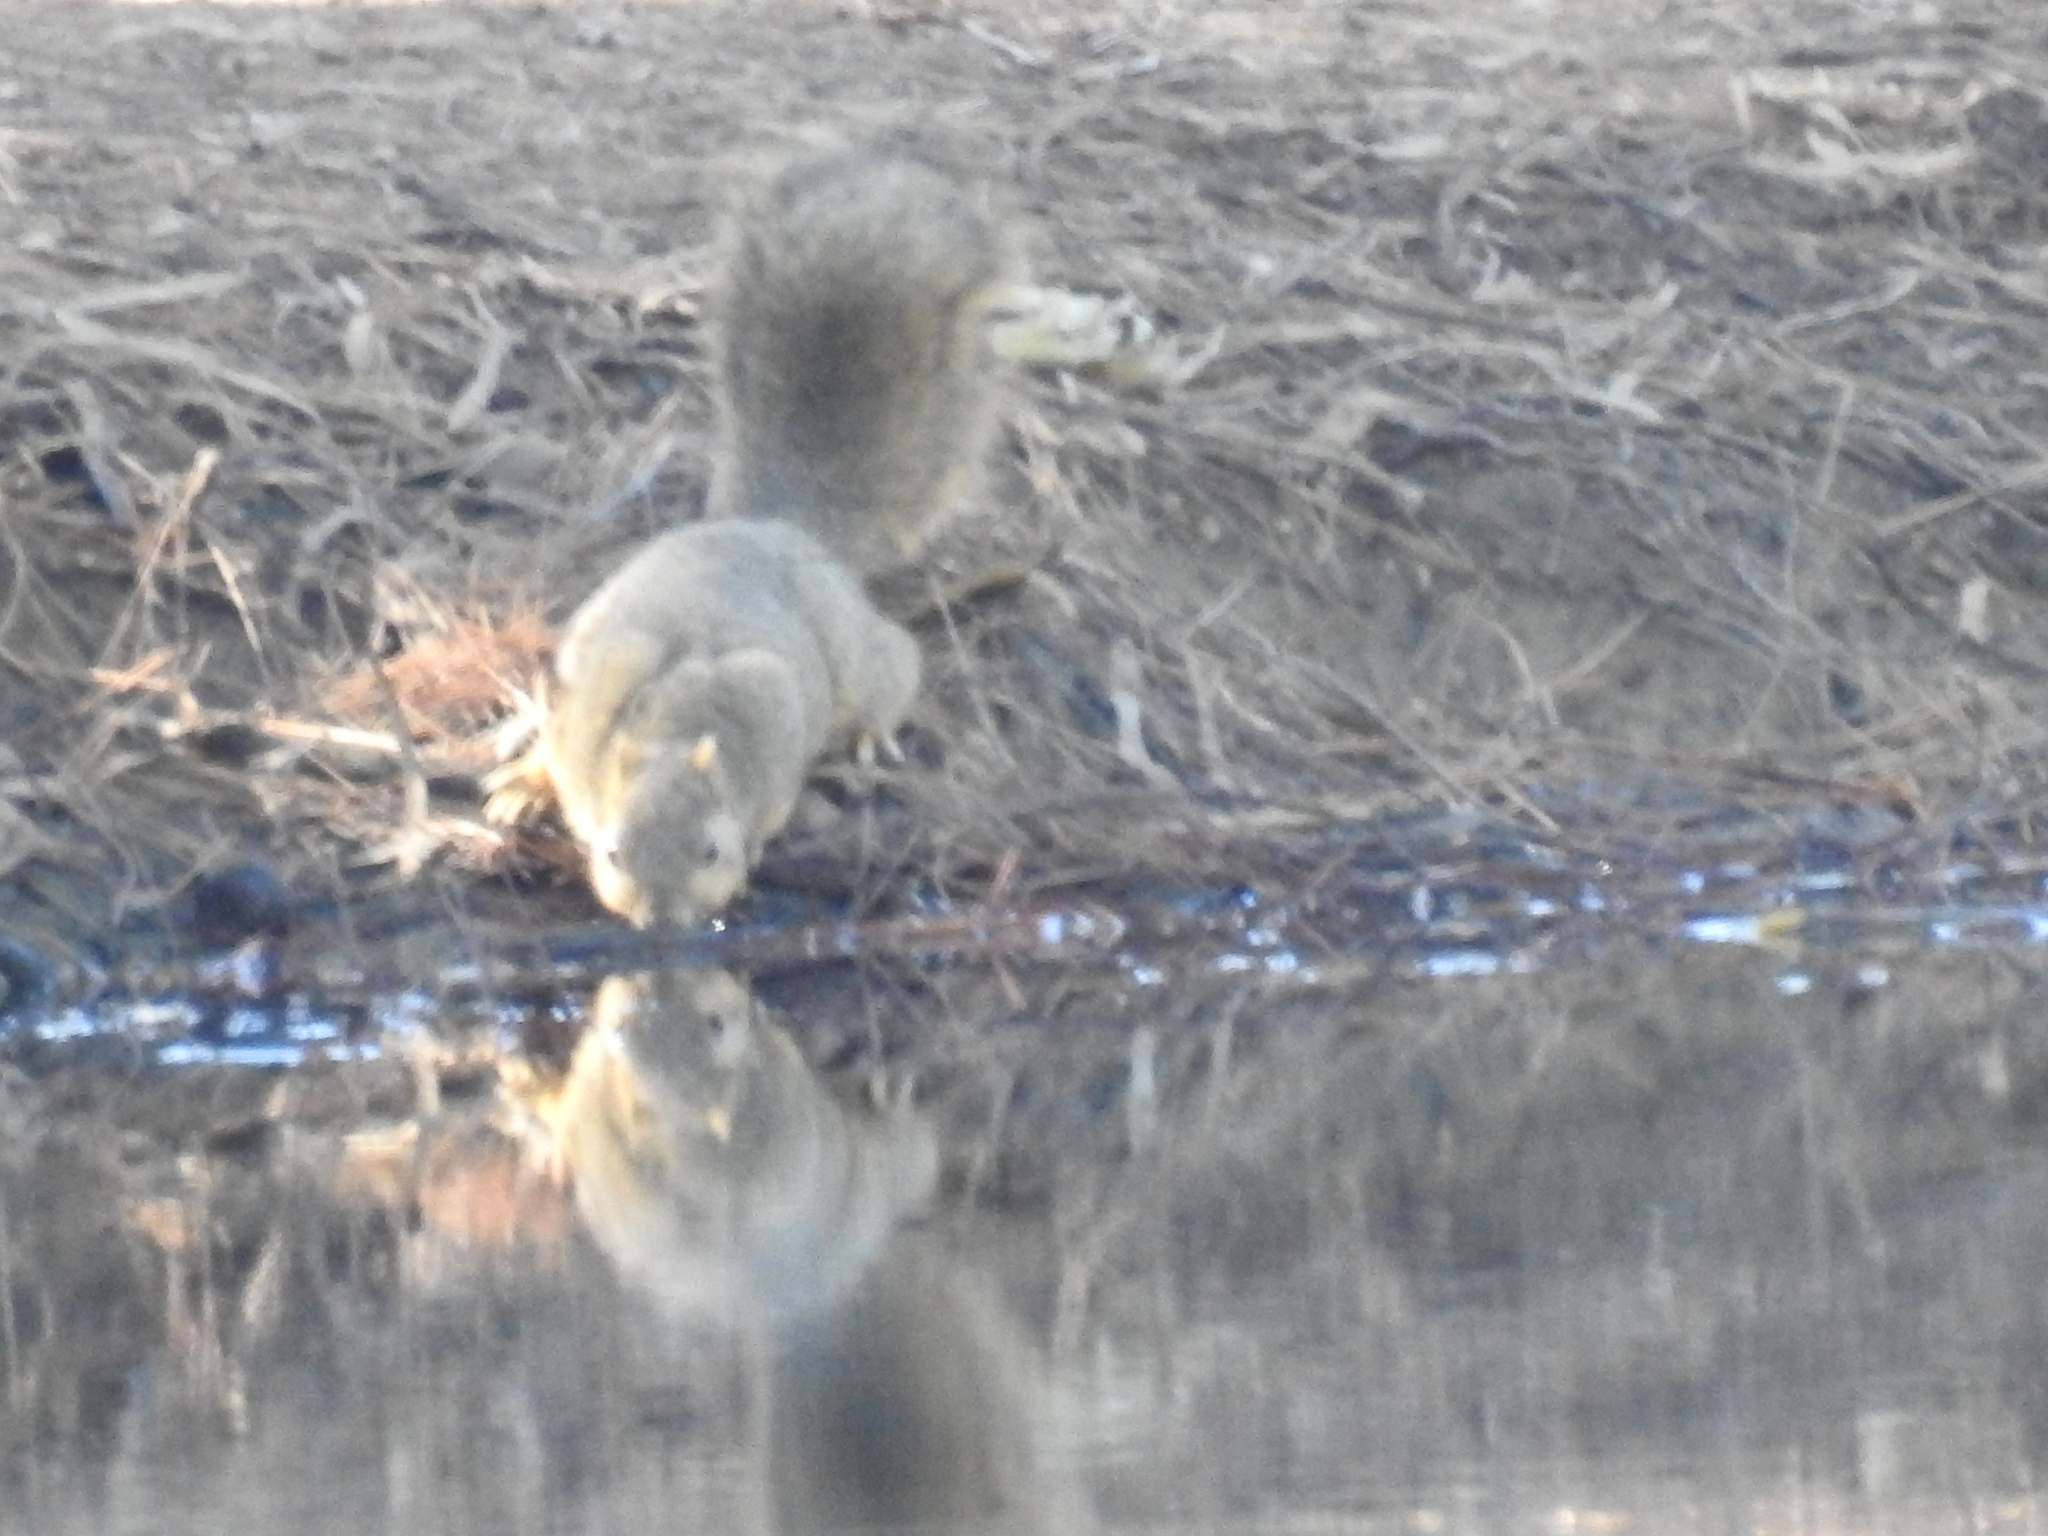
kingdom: Animalia
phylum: Chordata
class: Mammalia
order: Rodentia
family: Sciuridae
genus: Sciurus
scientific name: Sciurus niger
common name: Fox squirrel
